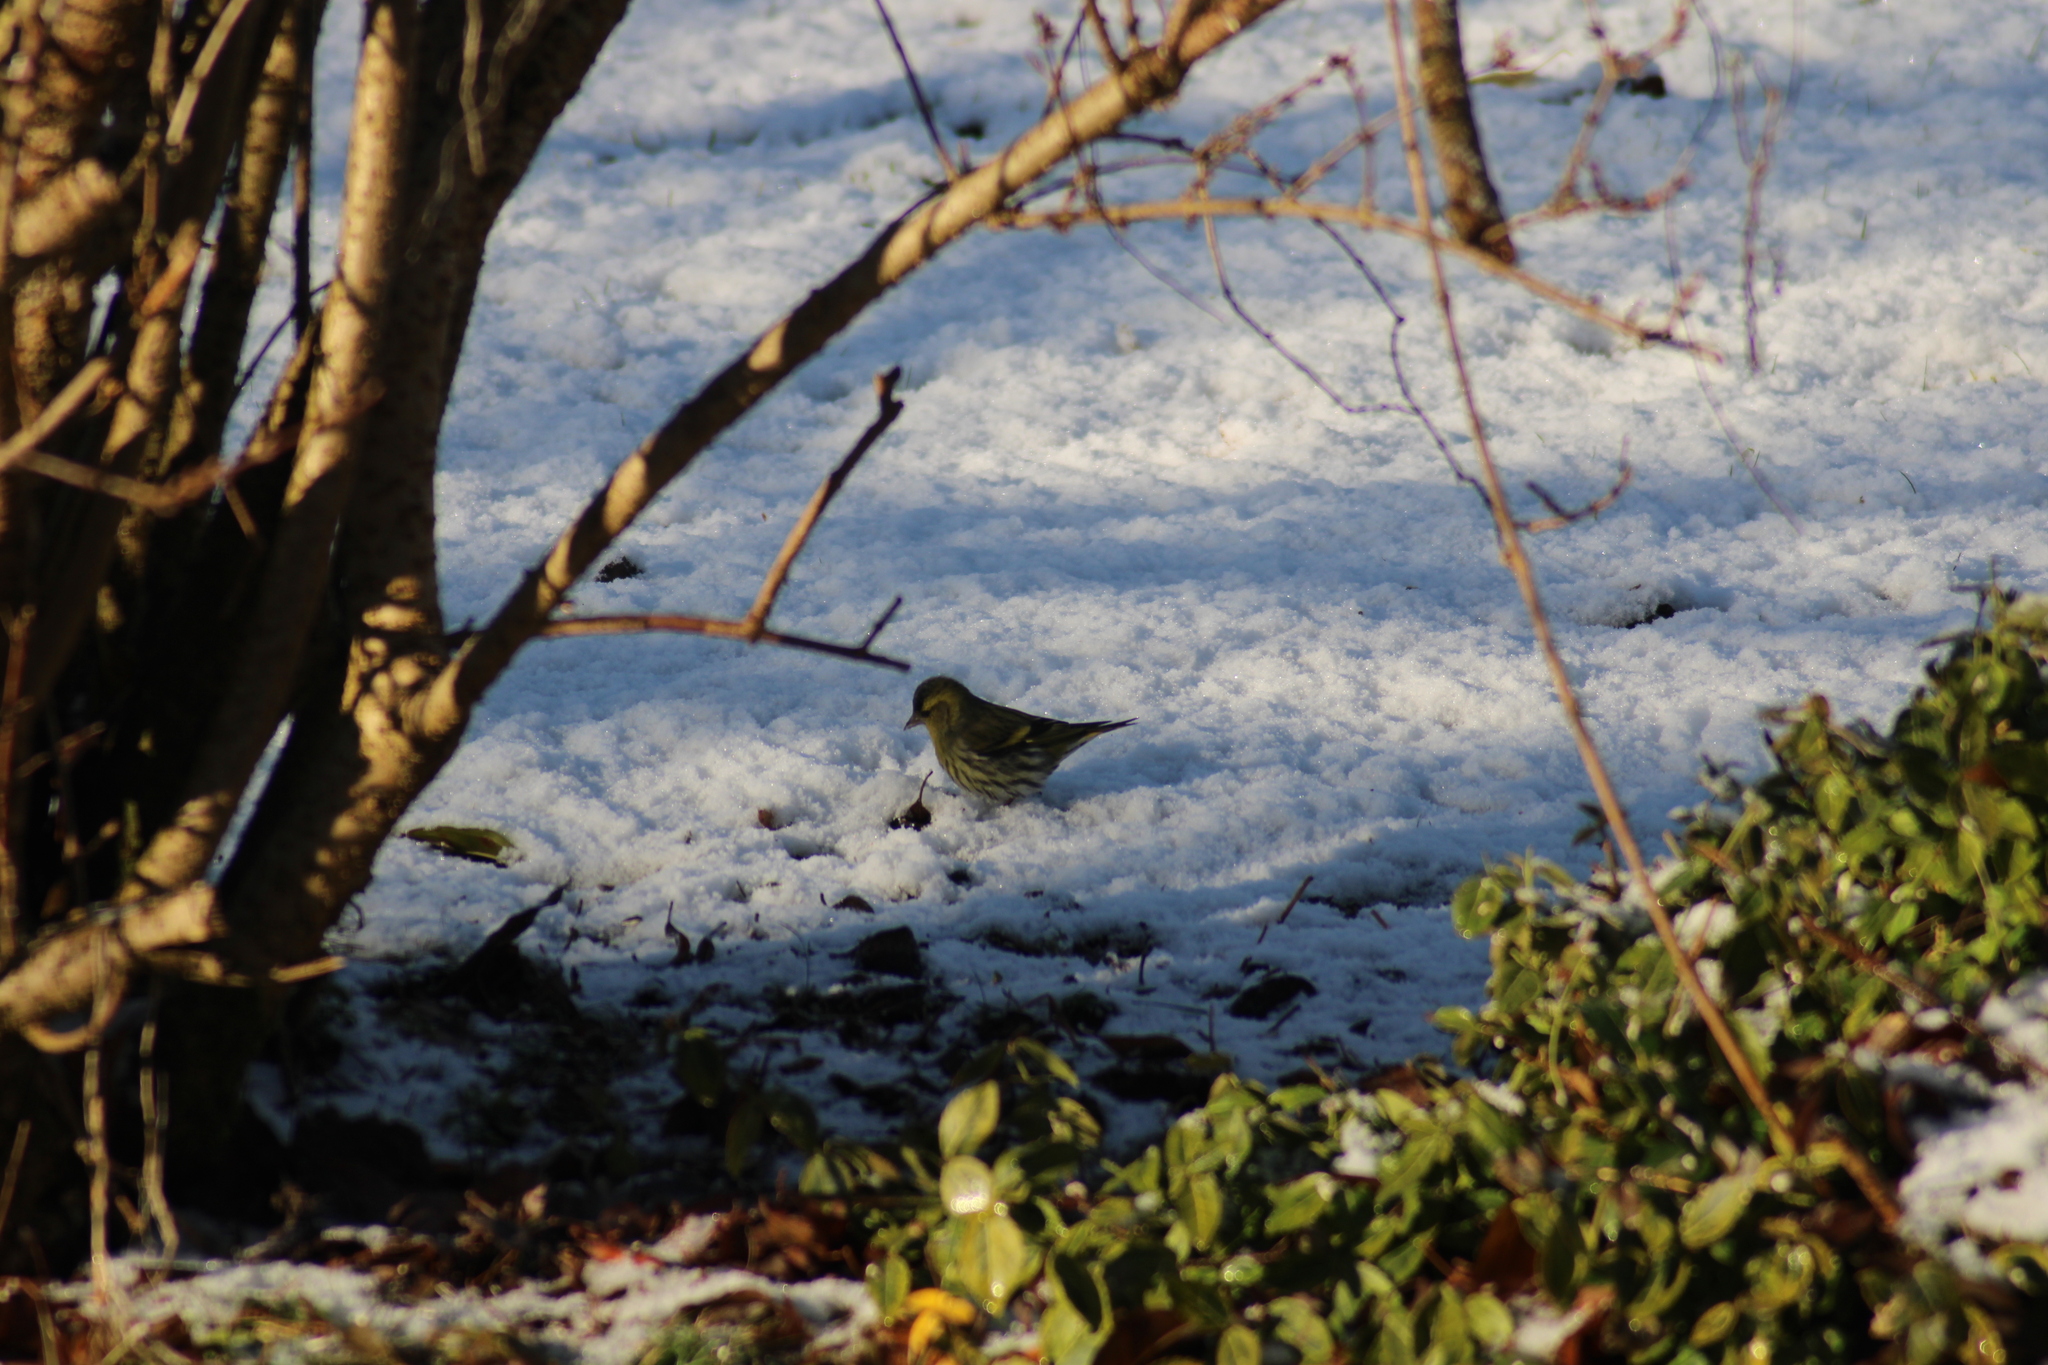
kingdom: Animalia
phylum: Chordata
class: Aves
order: Passeriformes
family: Fringillidae
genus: Spinus
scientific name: Spinus spinus
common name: Eurasian siskin
